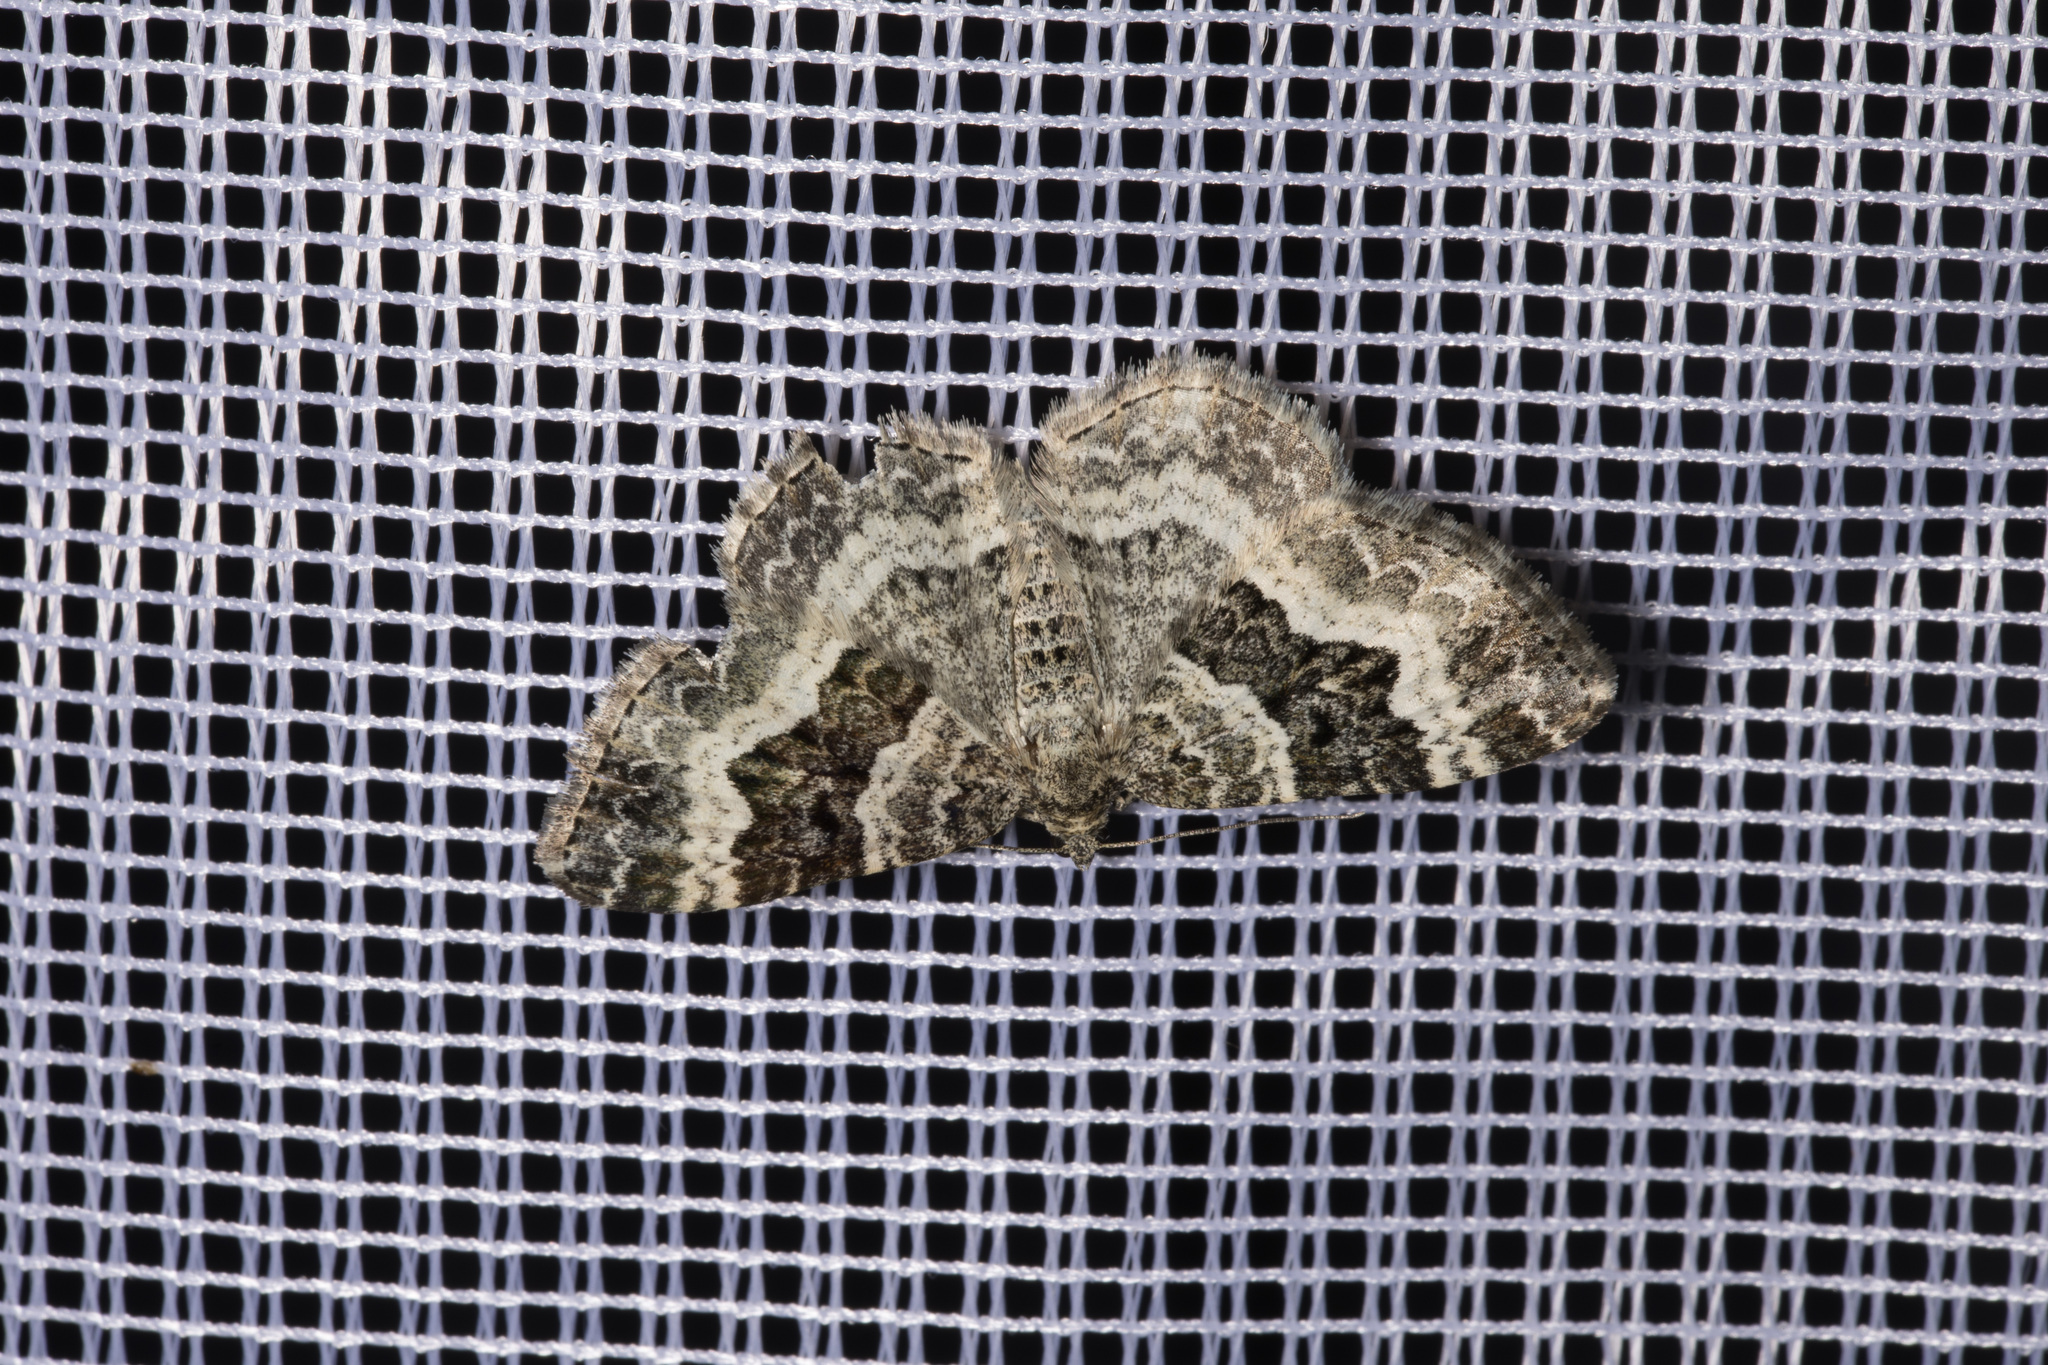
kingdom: Animalia
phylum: Arthropoda
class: Insecta
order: Lepidoptera
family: Geometridae
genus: Epirrhoe
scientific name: Epirrhoe alternata
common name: Common carpet
